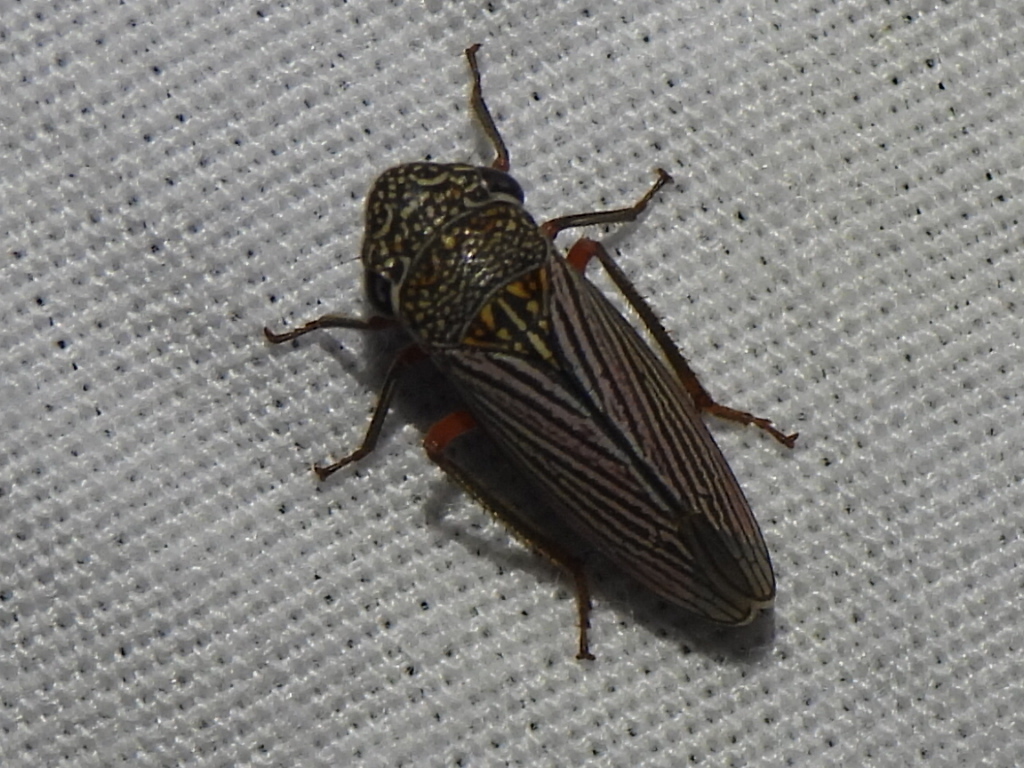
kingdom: Animalia
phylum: Arthropoda
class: Insecta
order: Hemiptera
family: Cicadellidae
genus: Cuerna
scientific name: Cuerna costalis
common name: Lateral-lined sharpshooter
